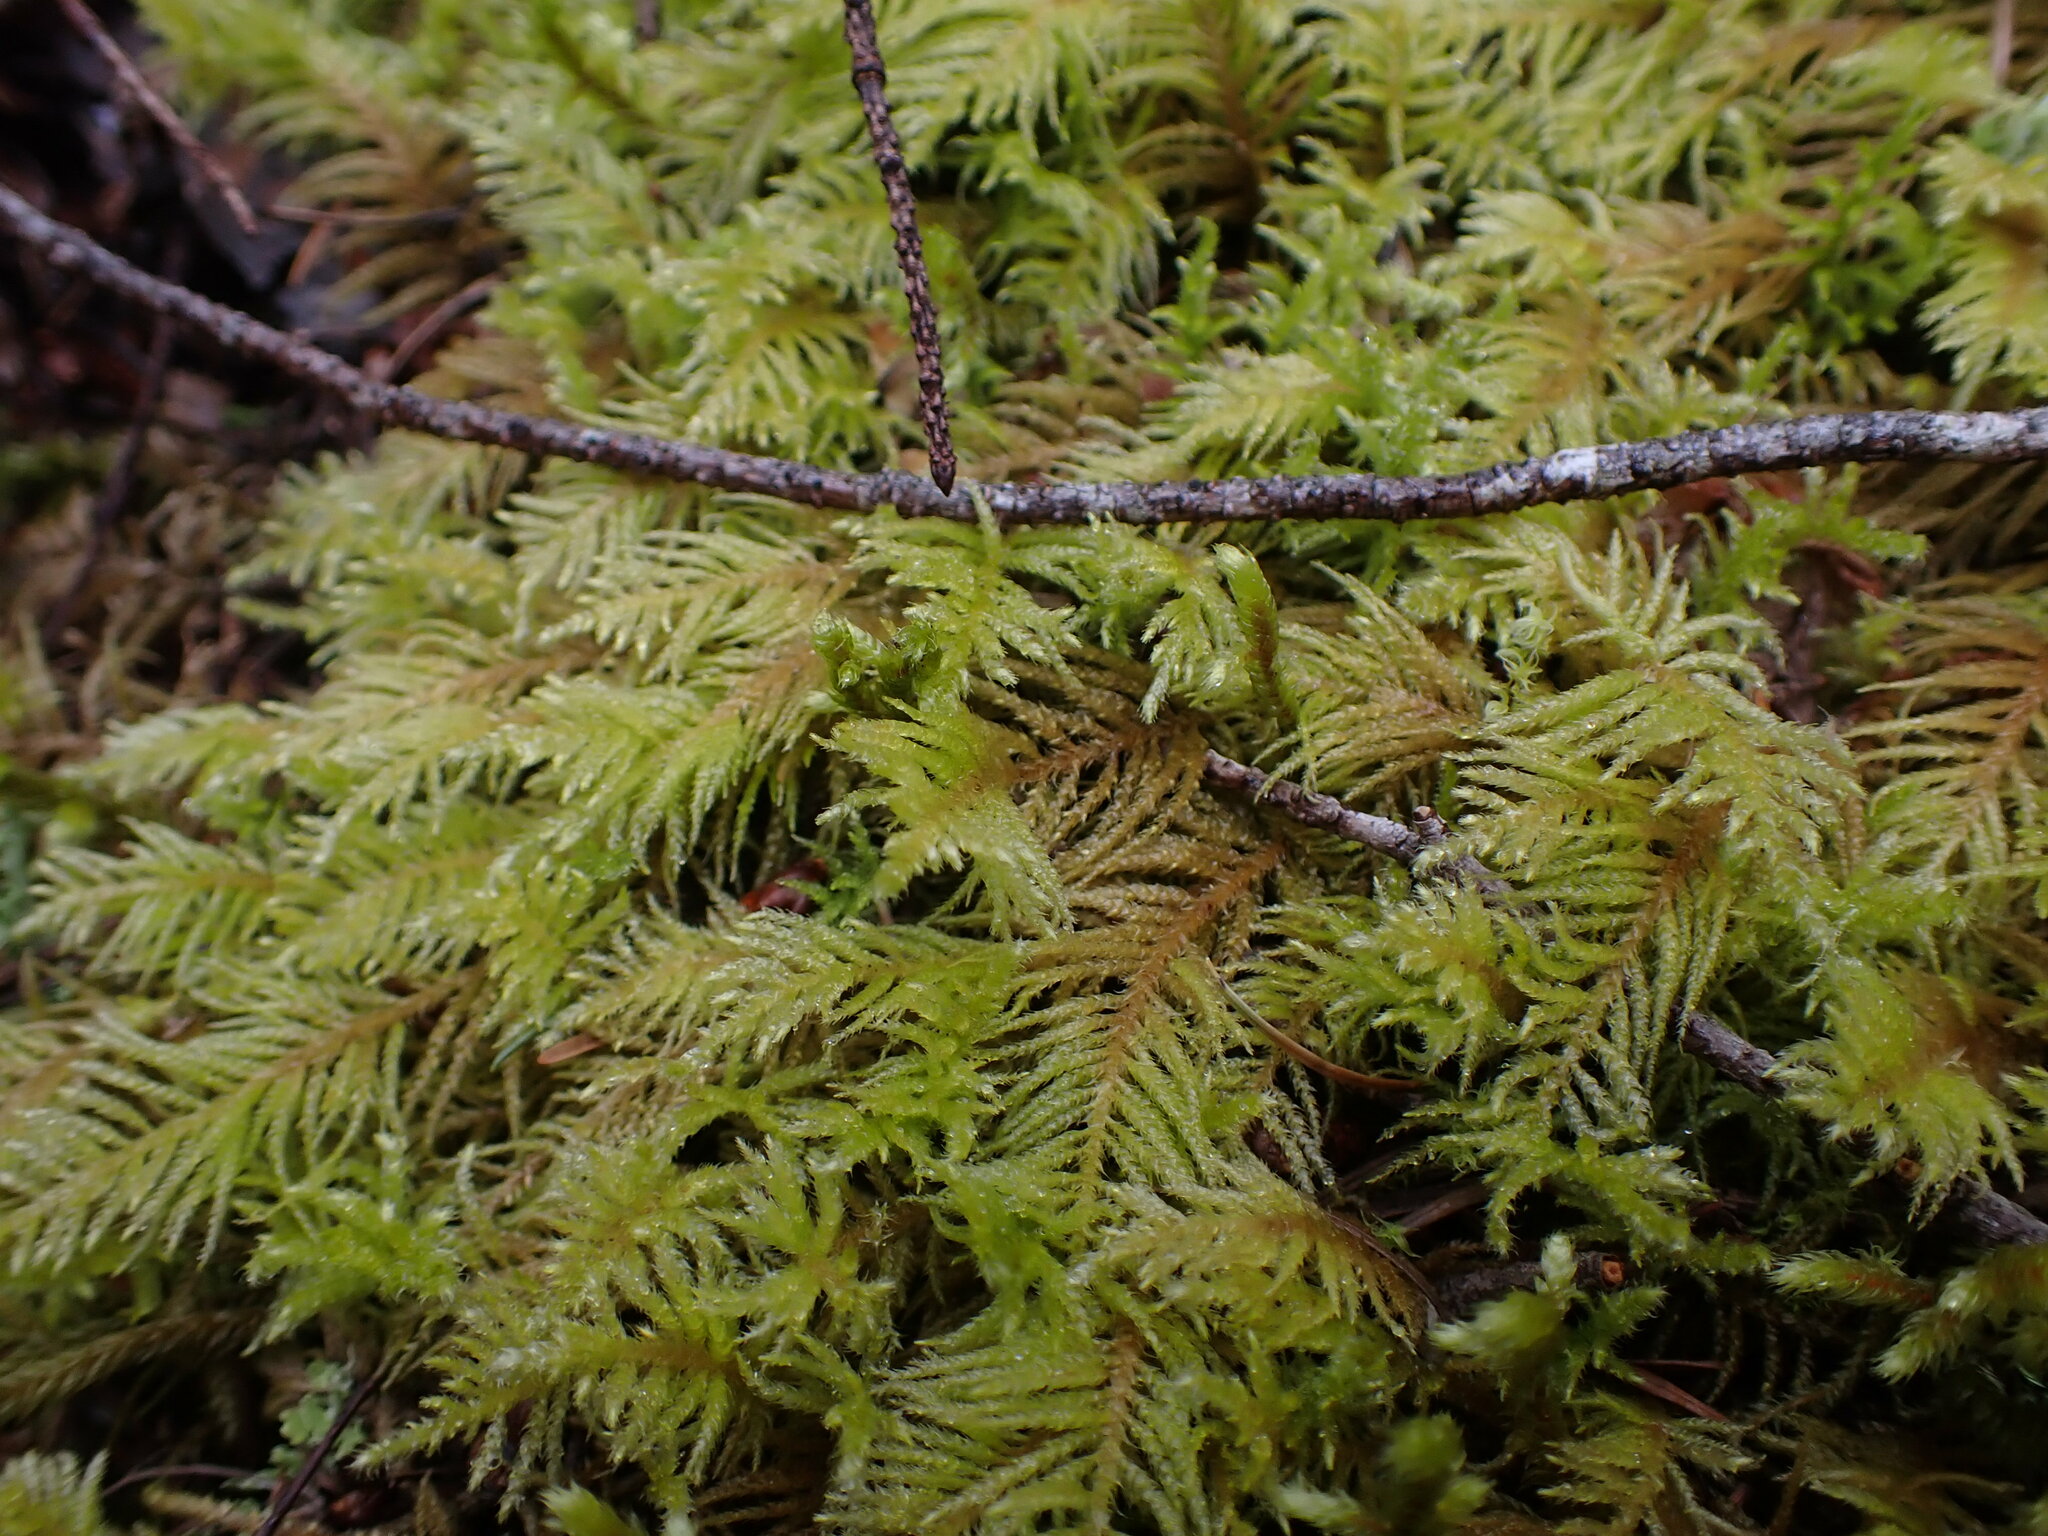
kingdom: Plantae
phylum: Bryophyta
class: Bryopsida
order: Hypnales
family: Brachytheciaceae
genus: Kindbergia
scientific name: Kindbergia oregana
